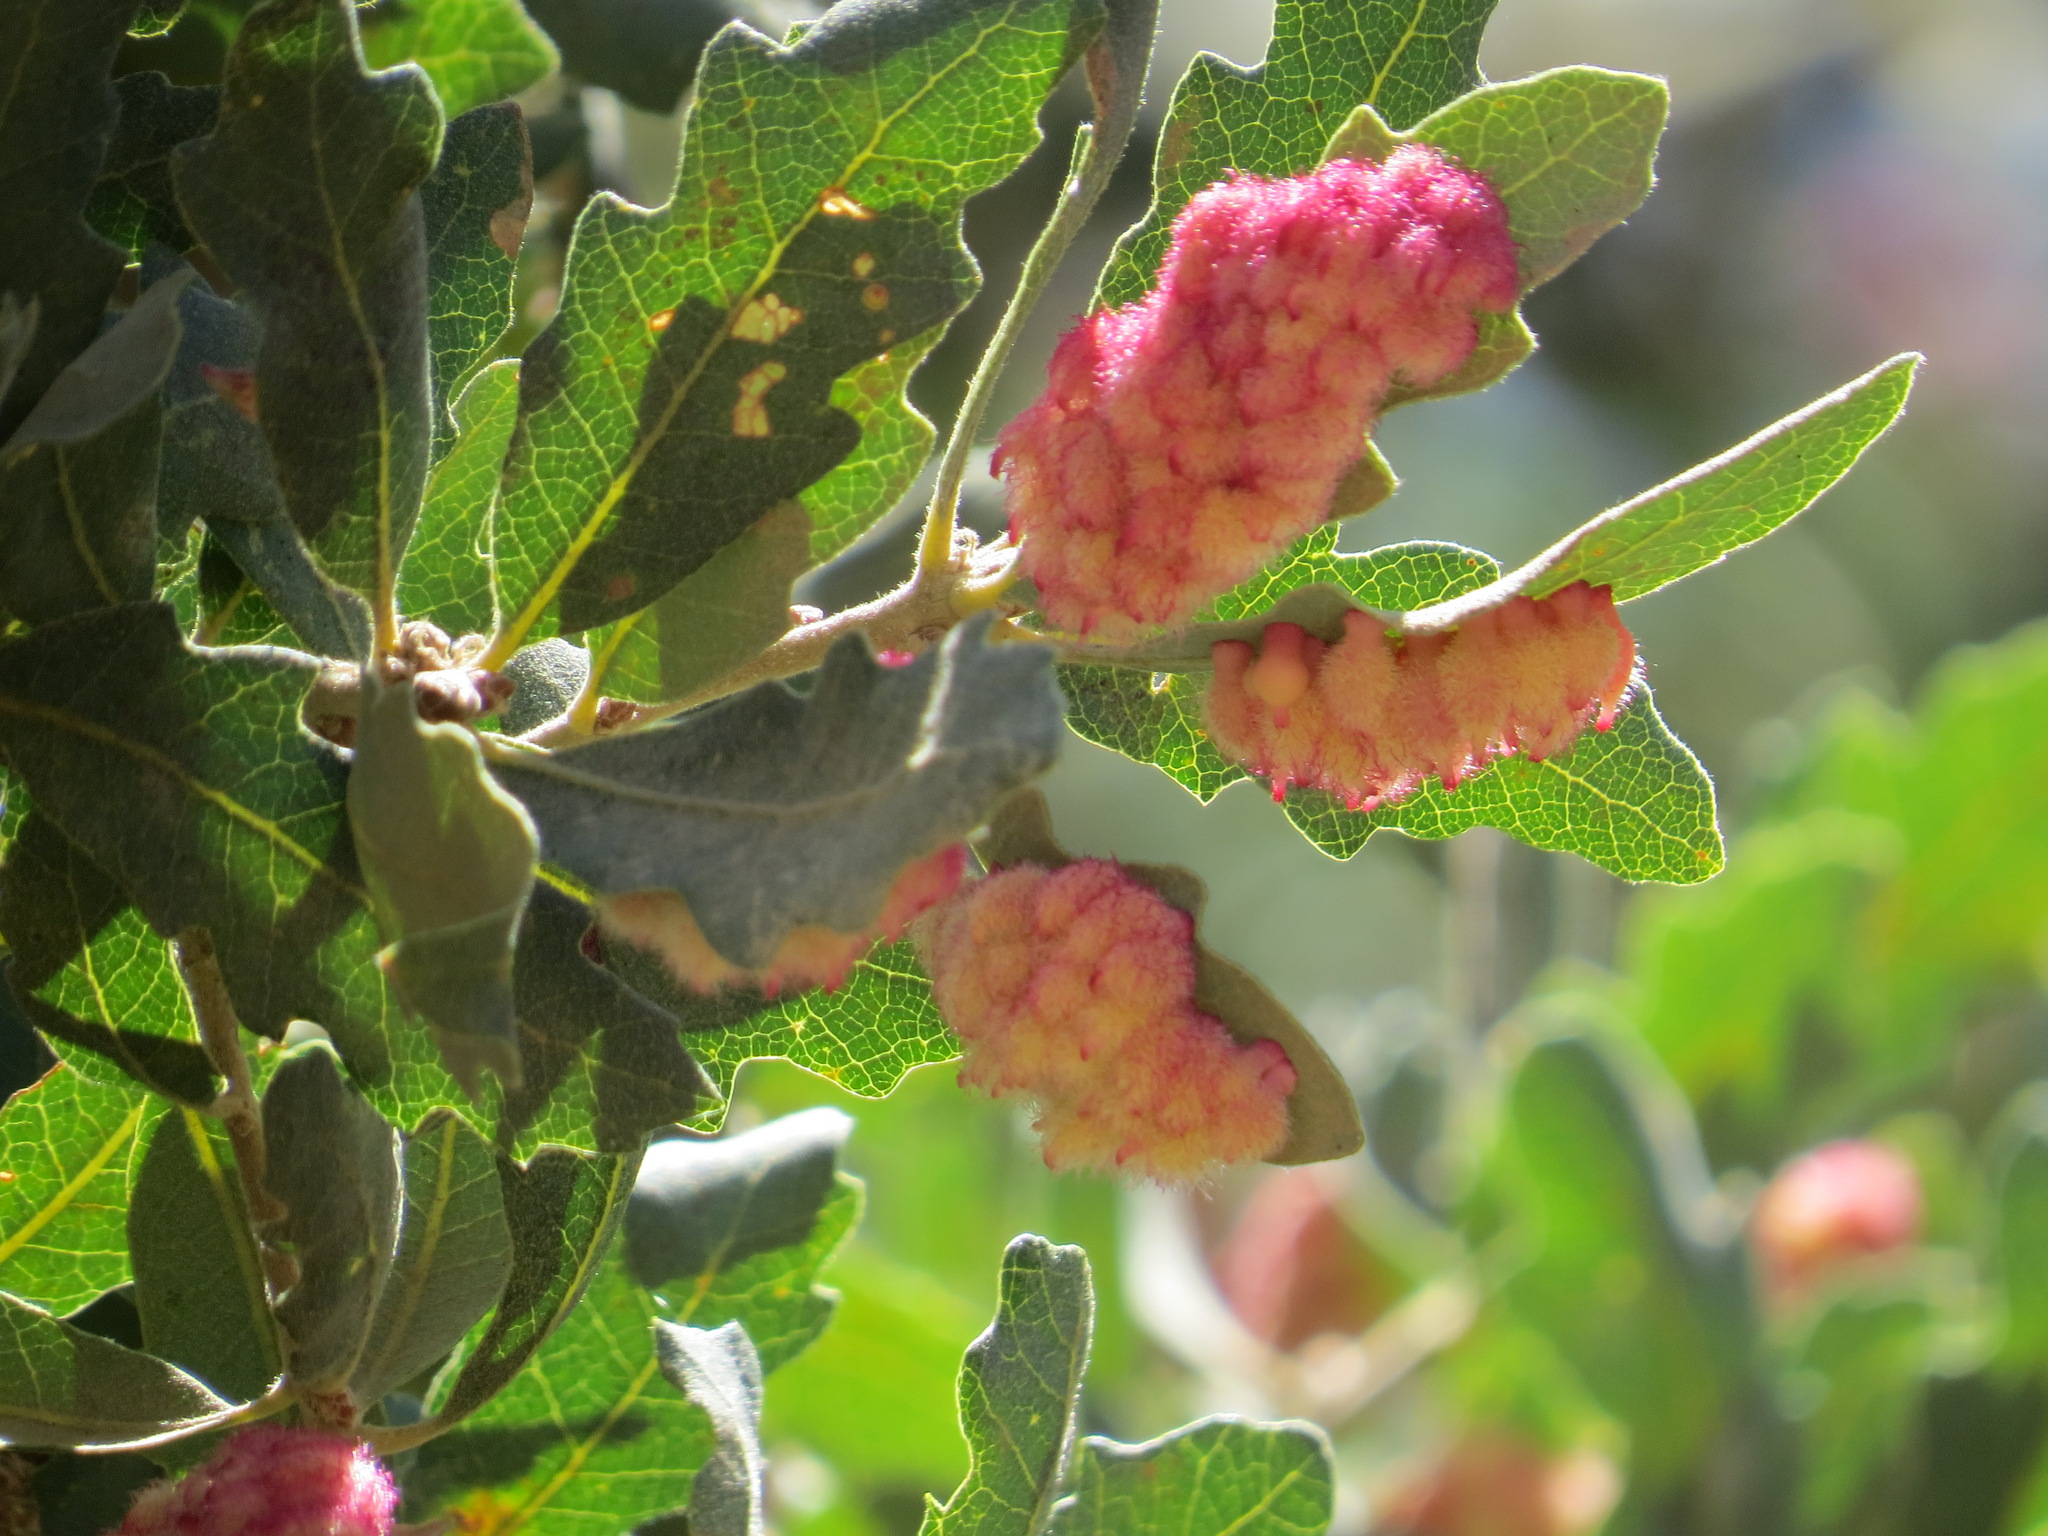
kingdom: Animalia
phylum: Arthropoda
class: Insecta
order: Hymenoptera
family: Cynipidae
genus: Andricus
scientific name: Andricus
